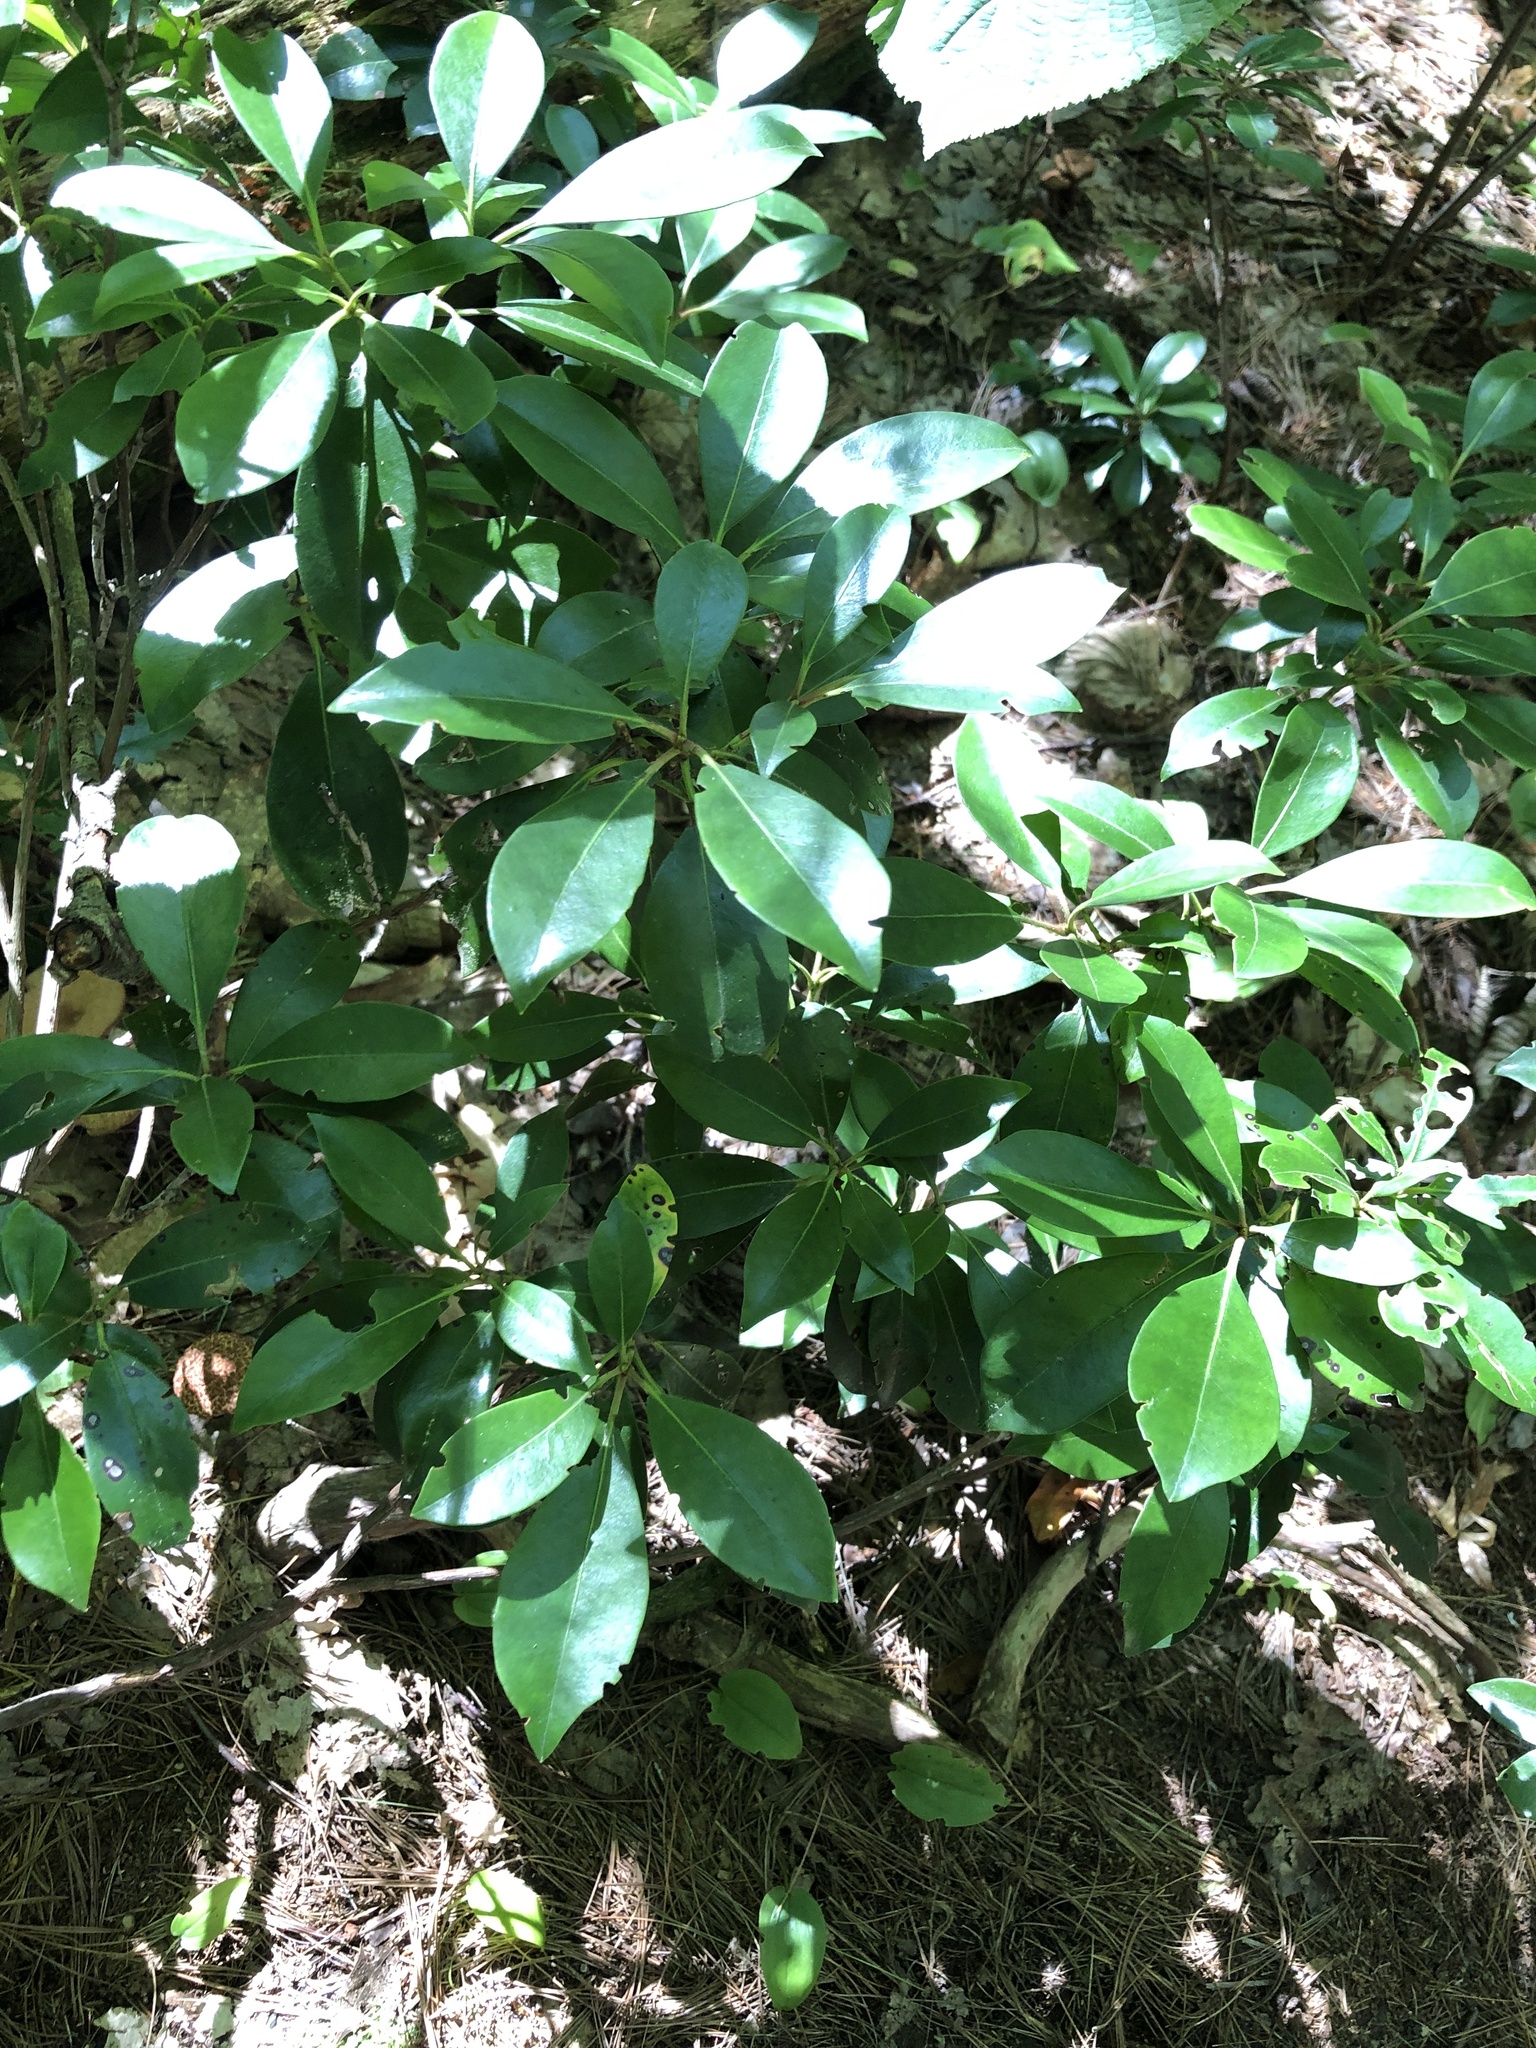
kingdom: Plantae
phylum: Tracheophyta
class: Magnoliopsida
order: Ericales
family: Ericaceae
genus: Kalmia
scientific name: Kalmia latifolia
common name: Mountain-laurel
